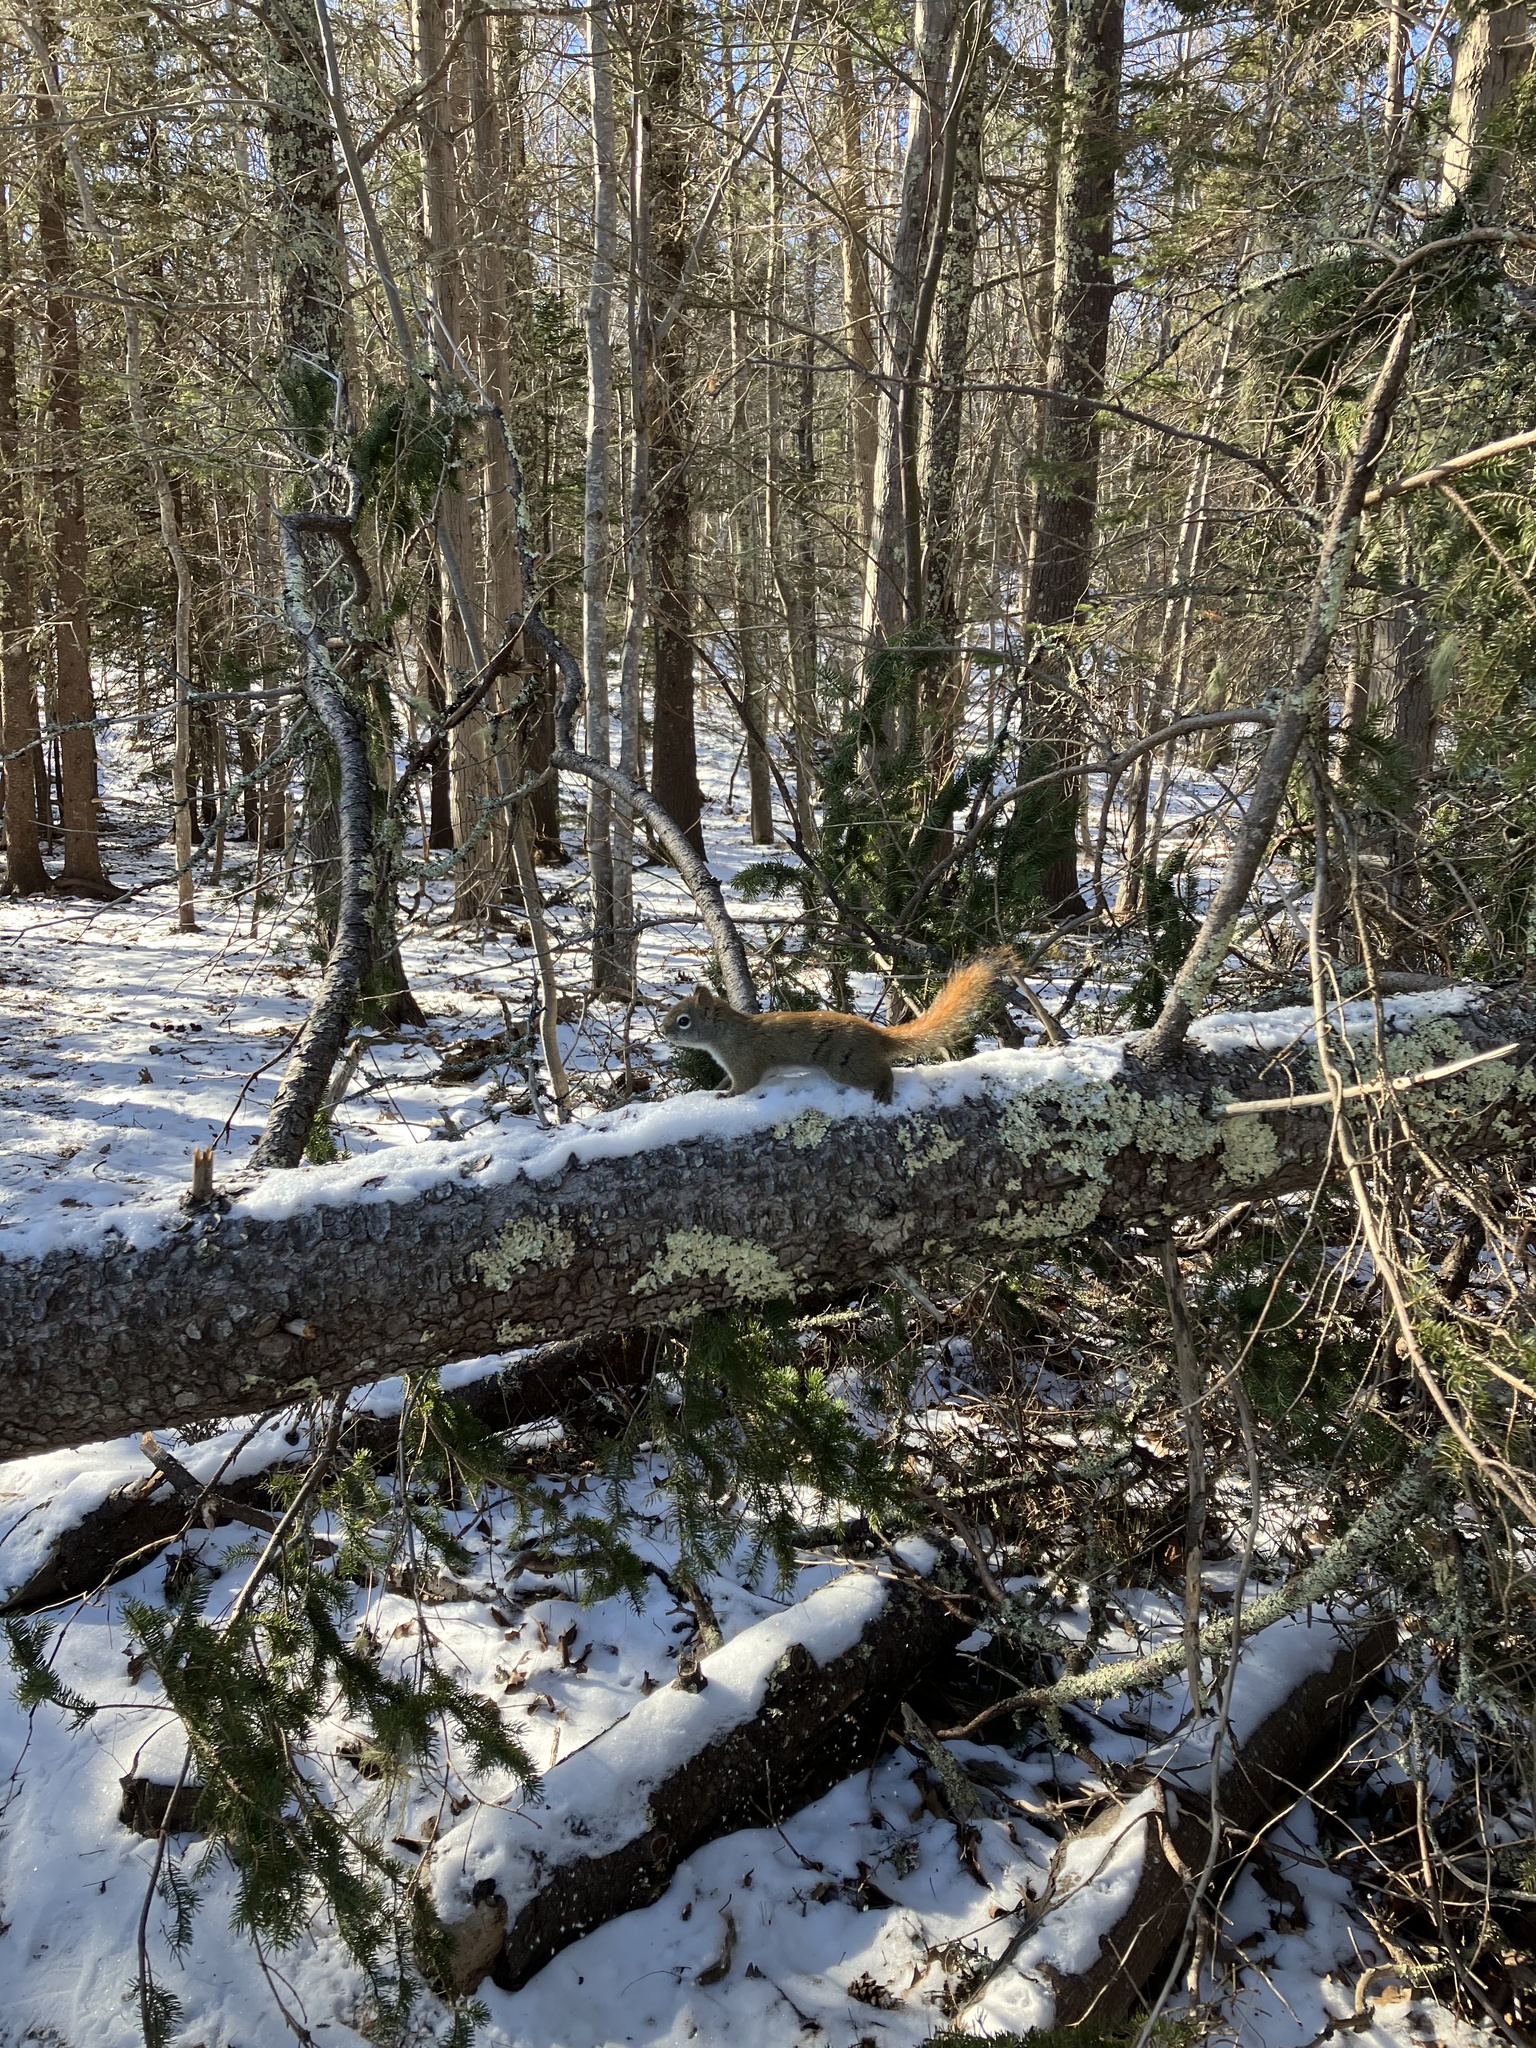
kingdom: Animalia
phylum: Chordata
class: Mammalia
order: Rodentia
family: Sciuridae
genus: Tamiasciurus
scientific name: Tamiasciurus hudsonicus
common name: Red squirrel
